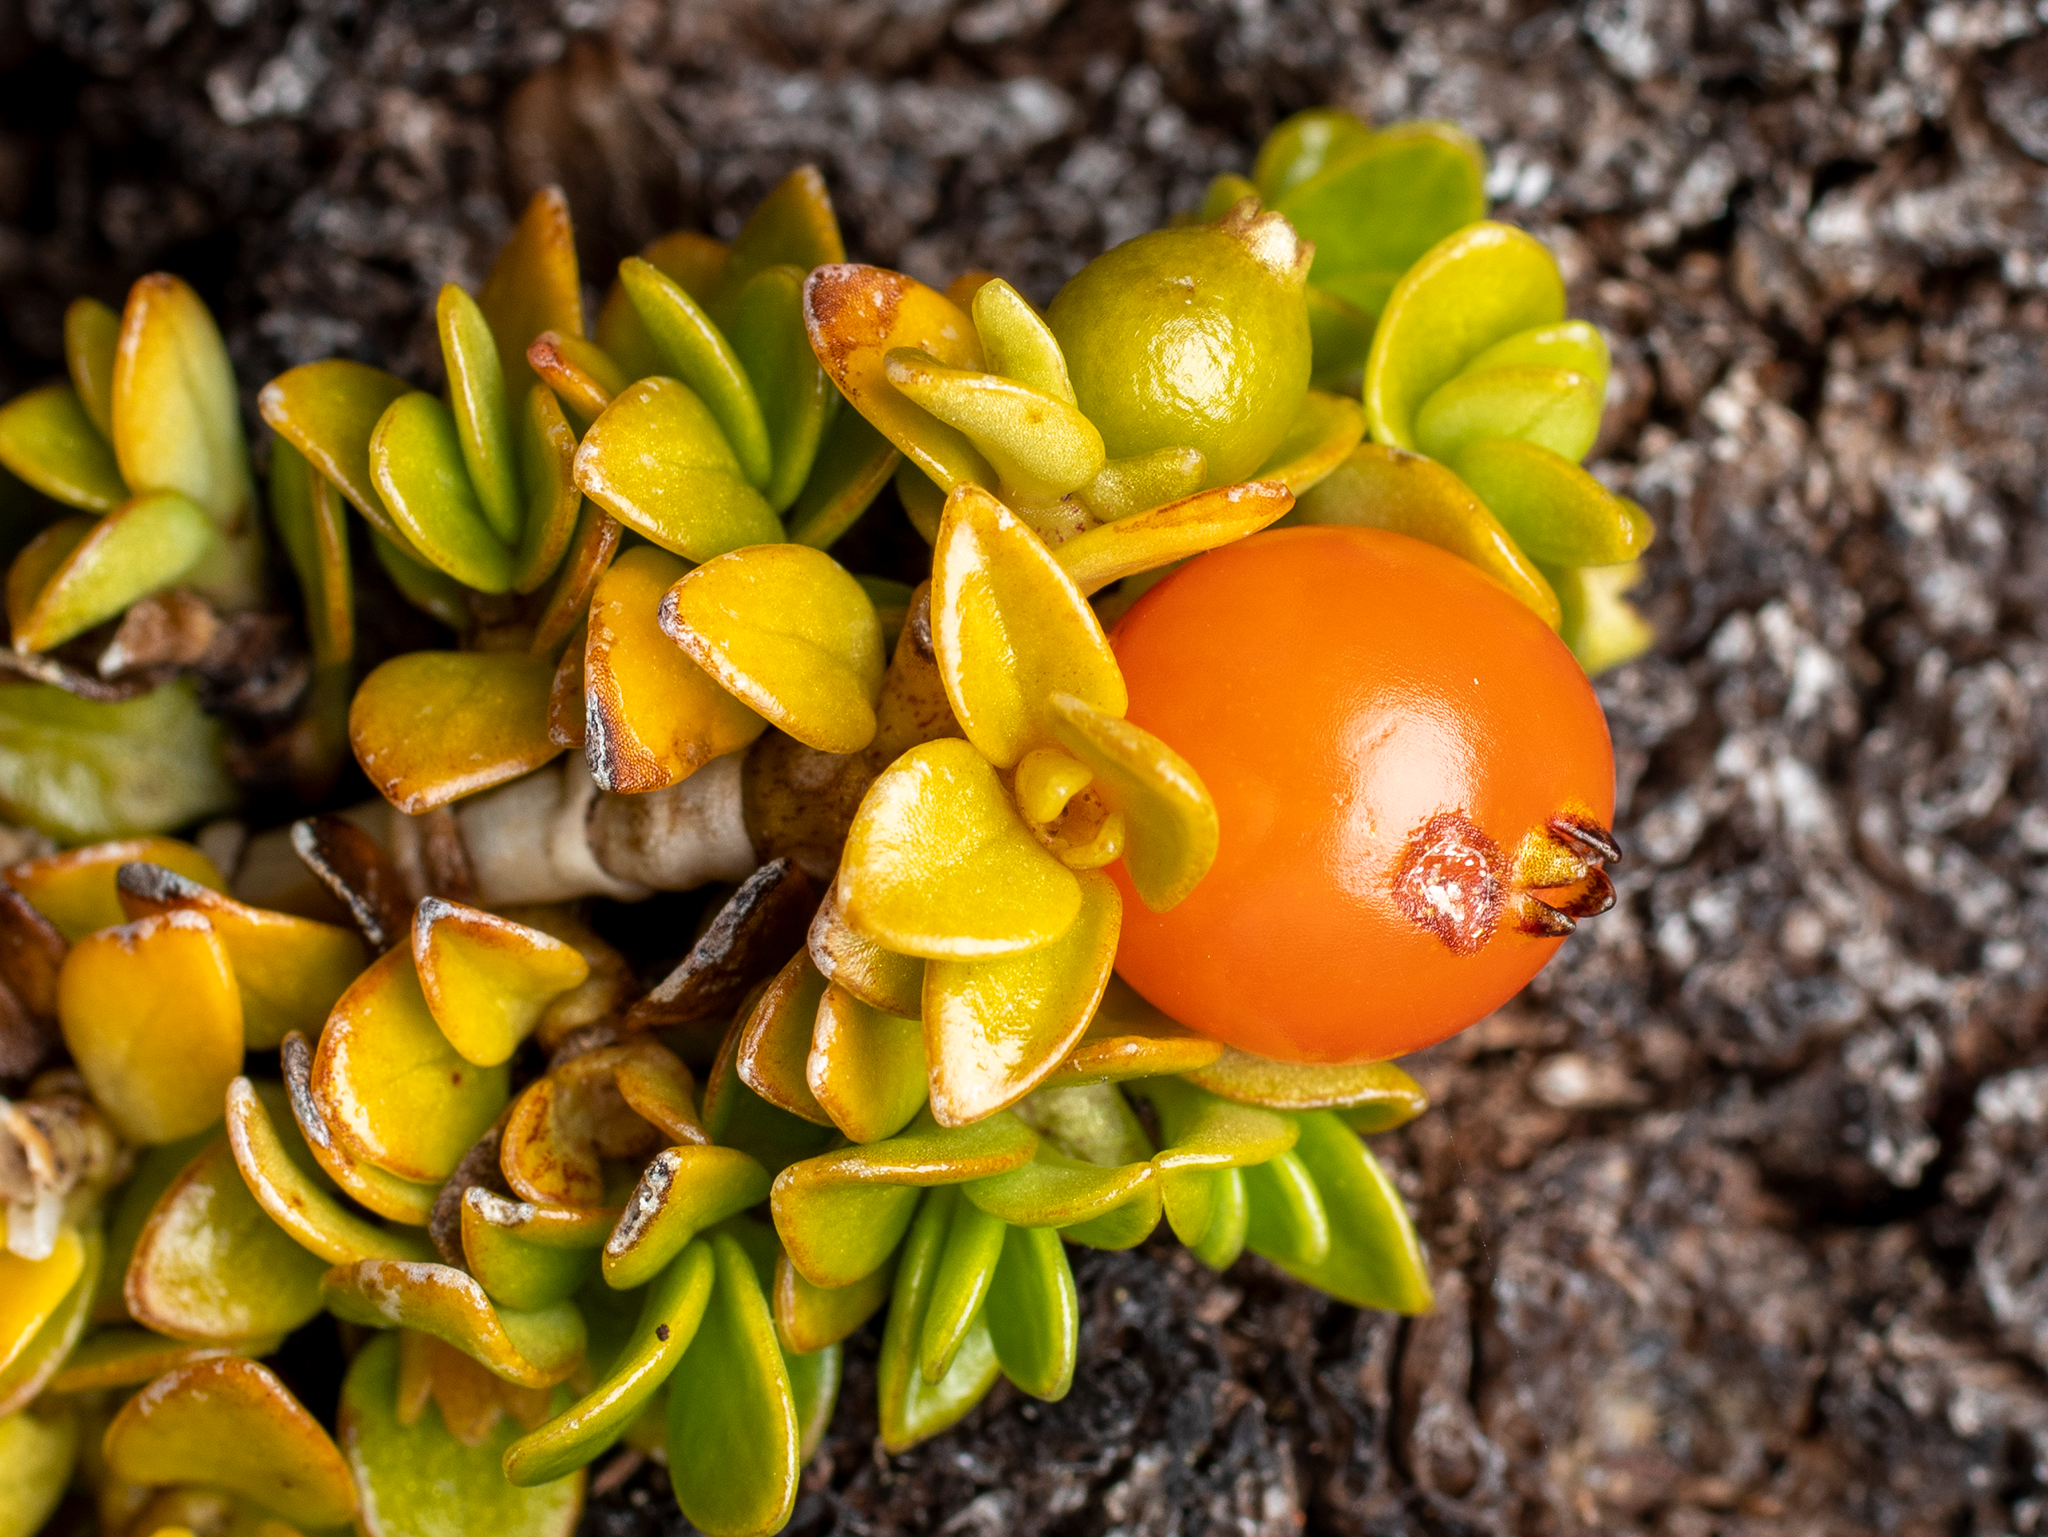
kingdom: Plantae
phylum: Tracheophyta
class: Magnoliopsida
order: Gentianales
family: Rubiaceae
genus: Coprosma
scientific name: Coprosma perpusilla
